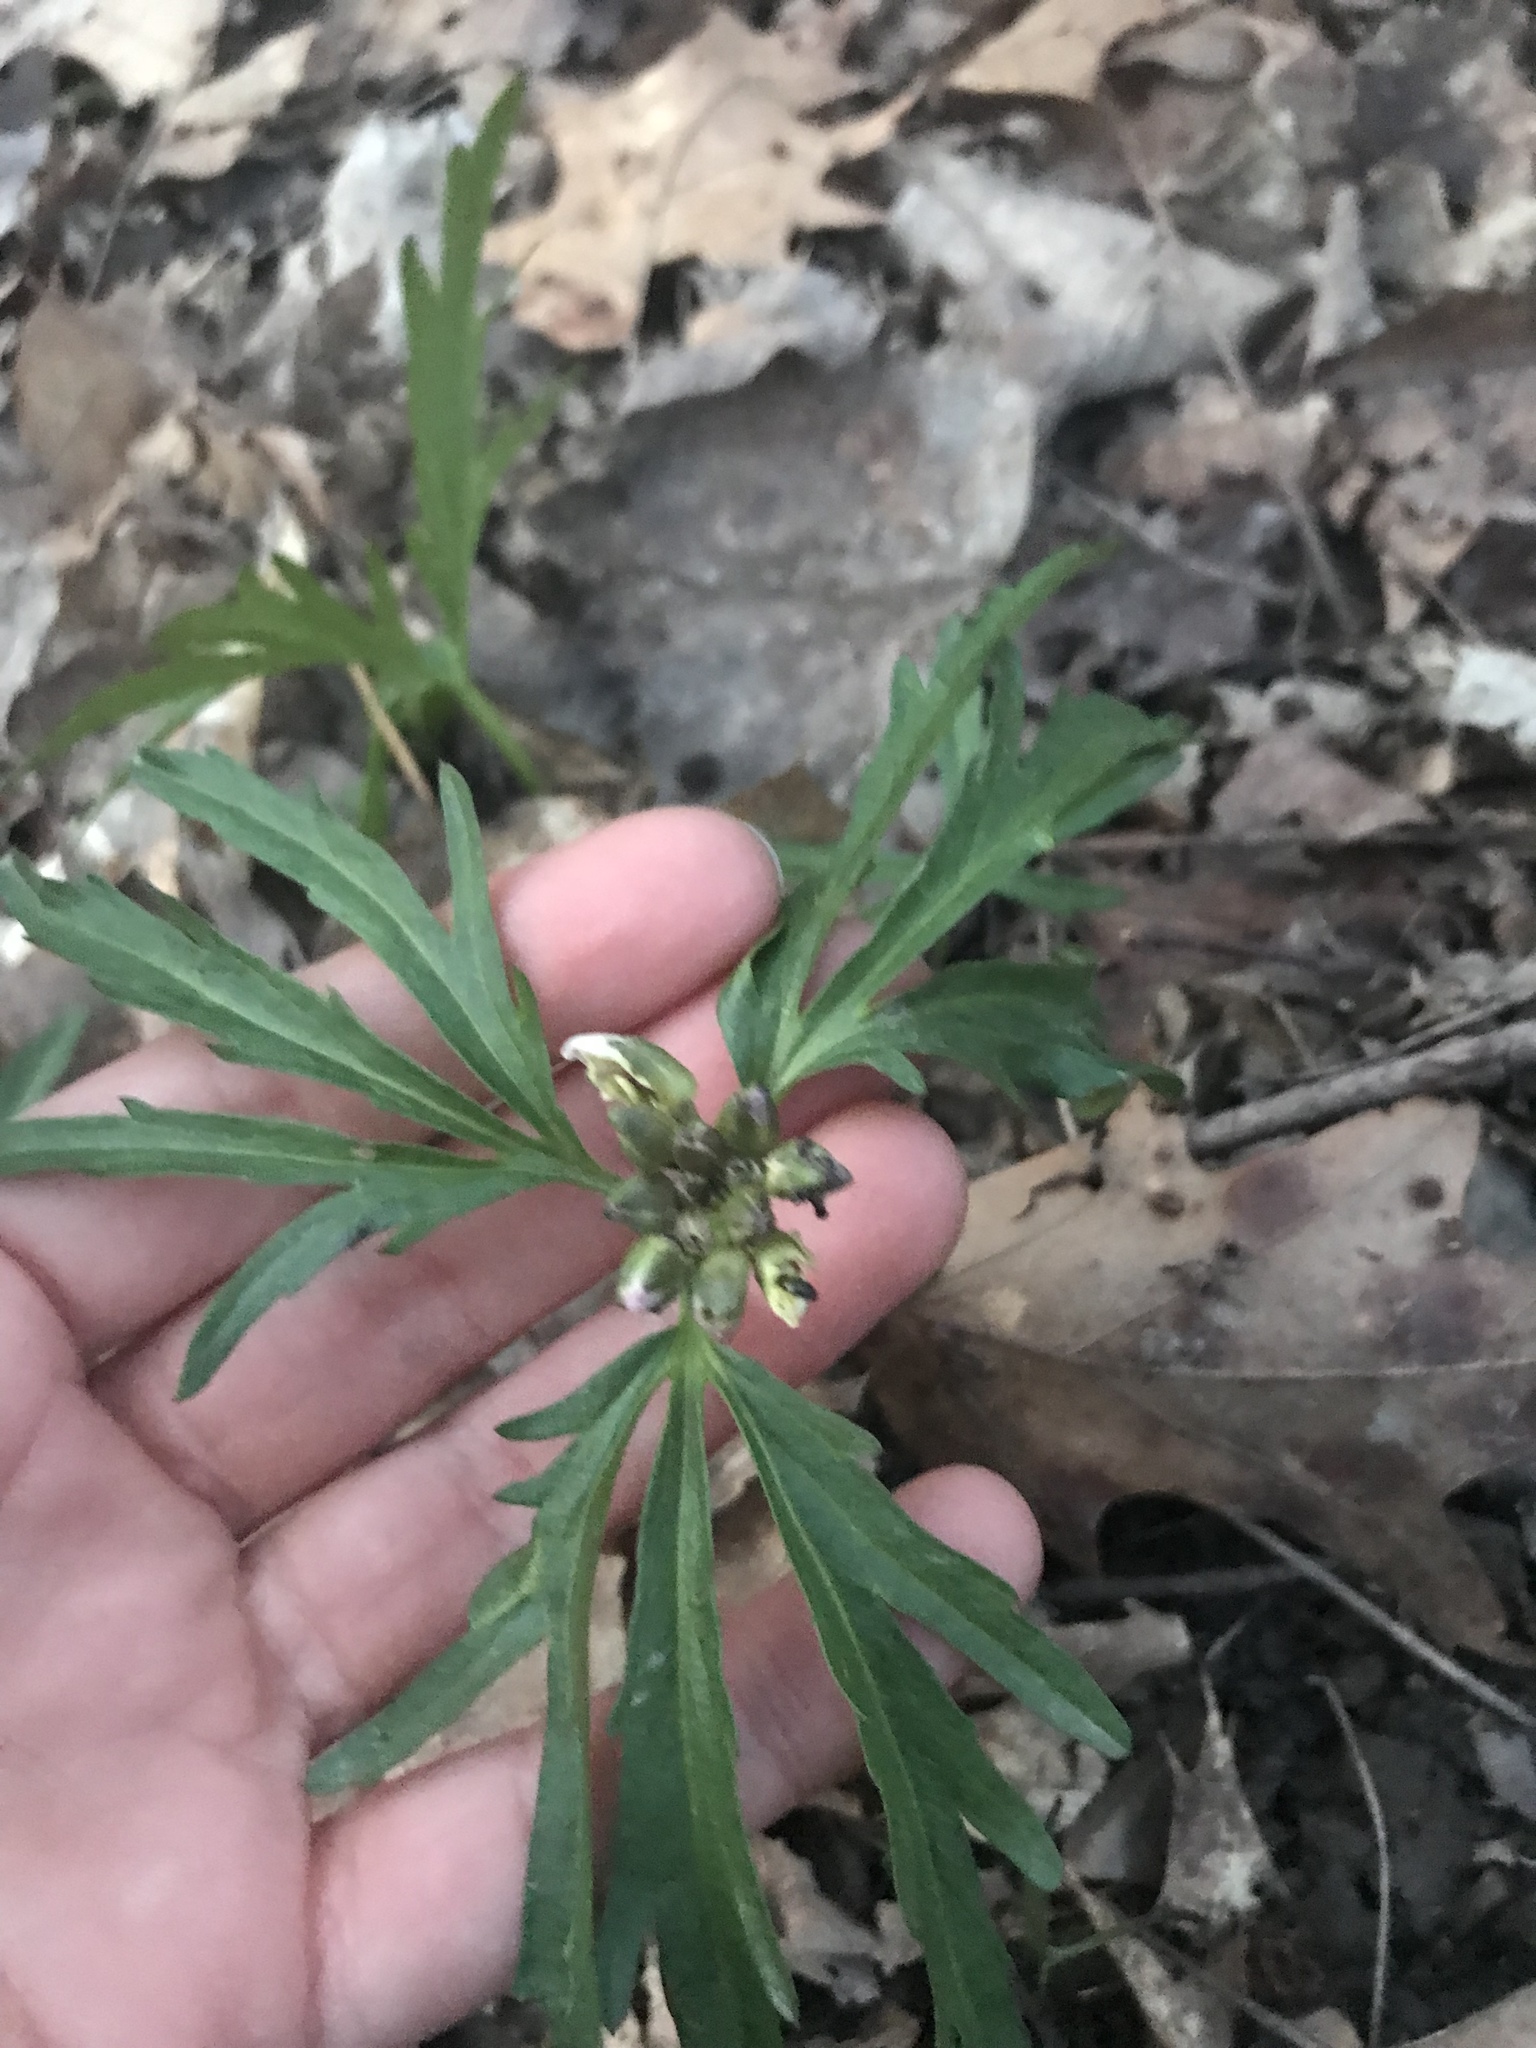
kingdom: Plantae
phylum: Tracheophyta
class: Magnoliopsida
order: Brassicales
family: Brassicaceae
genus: Cardamine
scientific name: Cardamine concatenata
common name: Cut-leaf toothcup
